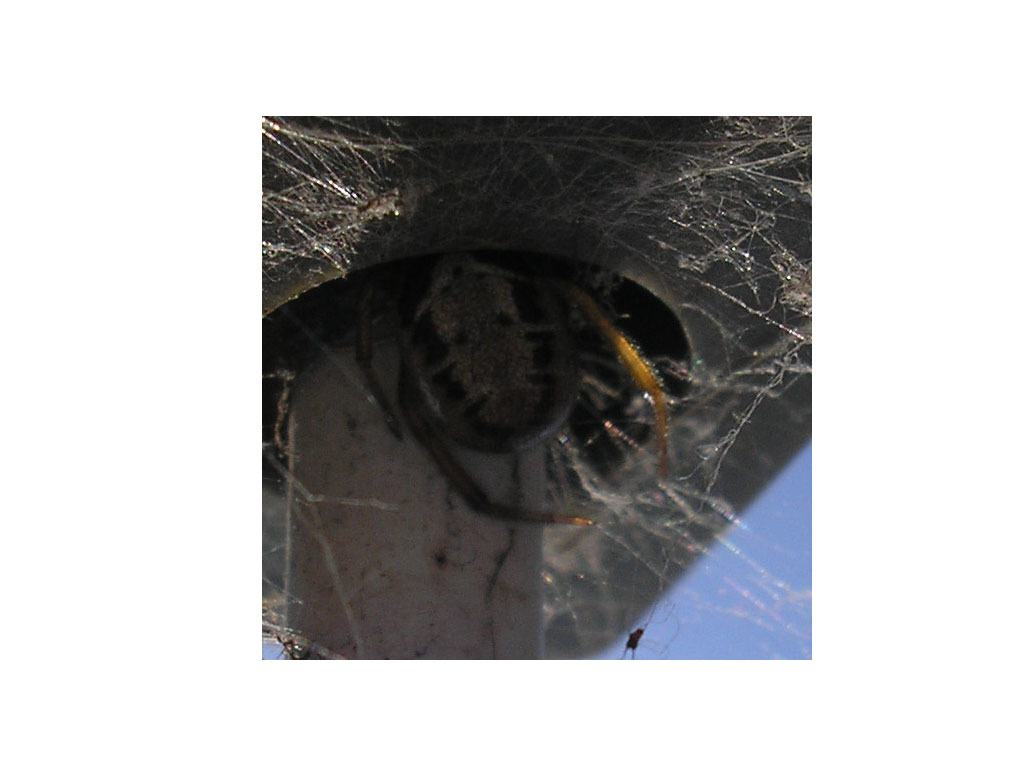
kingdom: Animalia
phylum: Arthropoda
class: Arachnida
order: Araneae
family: Theridiidae
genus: Steatoda
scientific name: Steatoda nobilis
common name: Cobweb weaver
